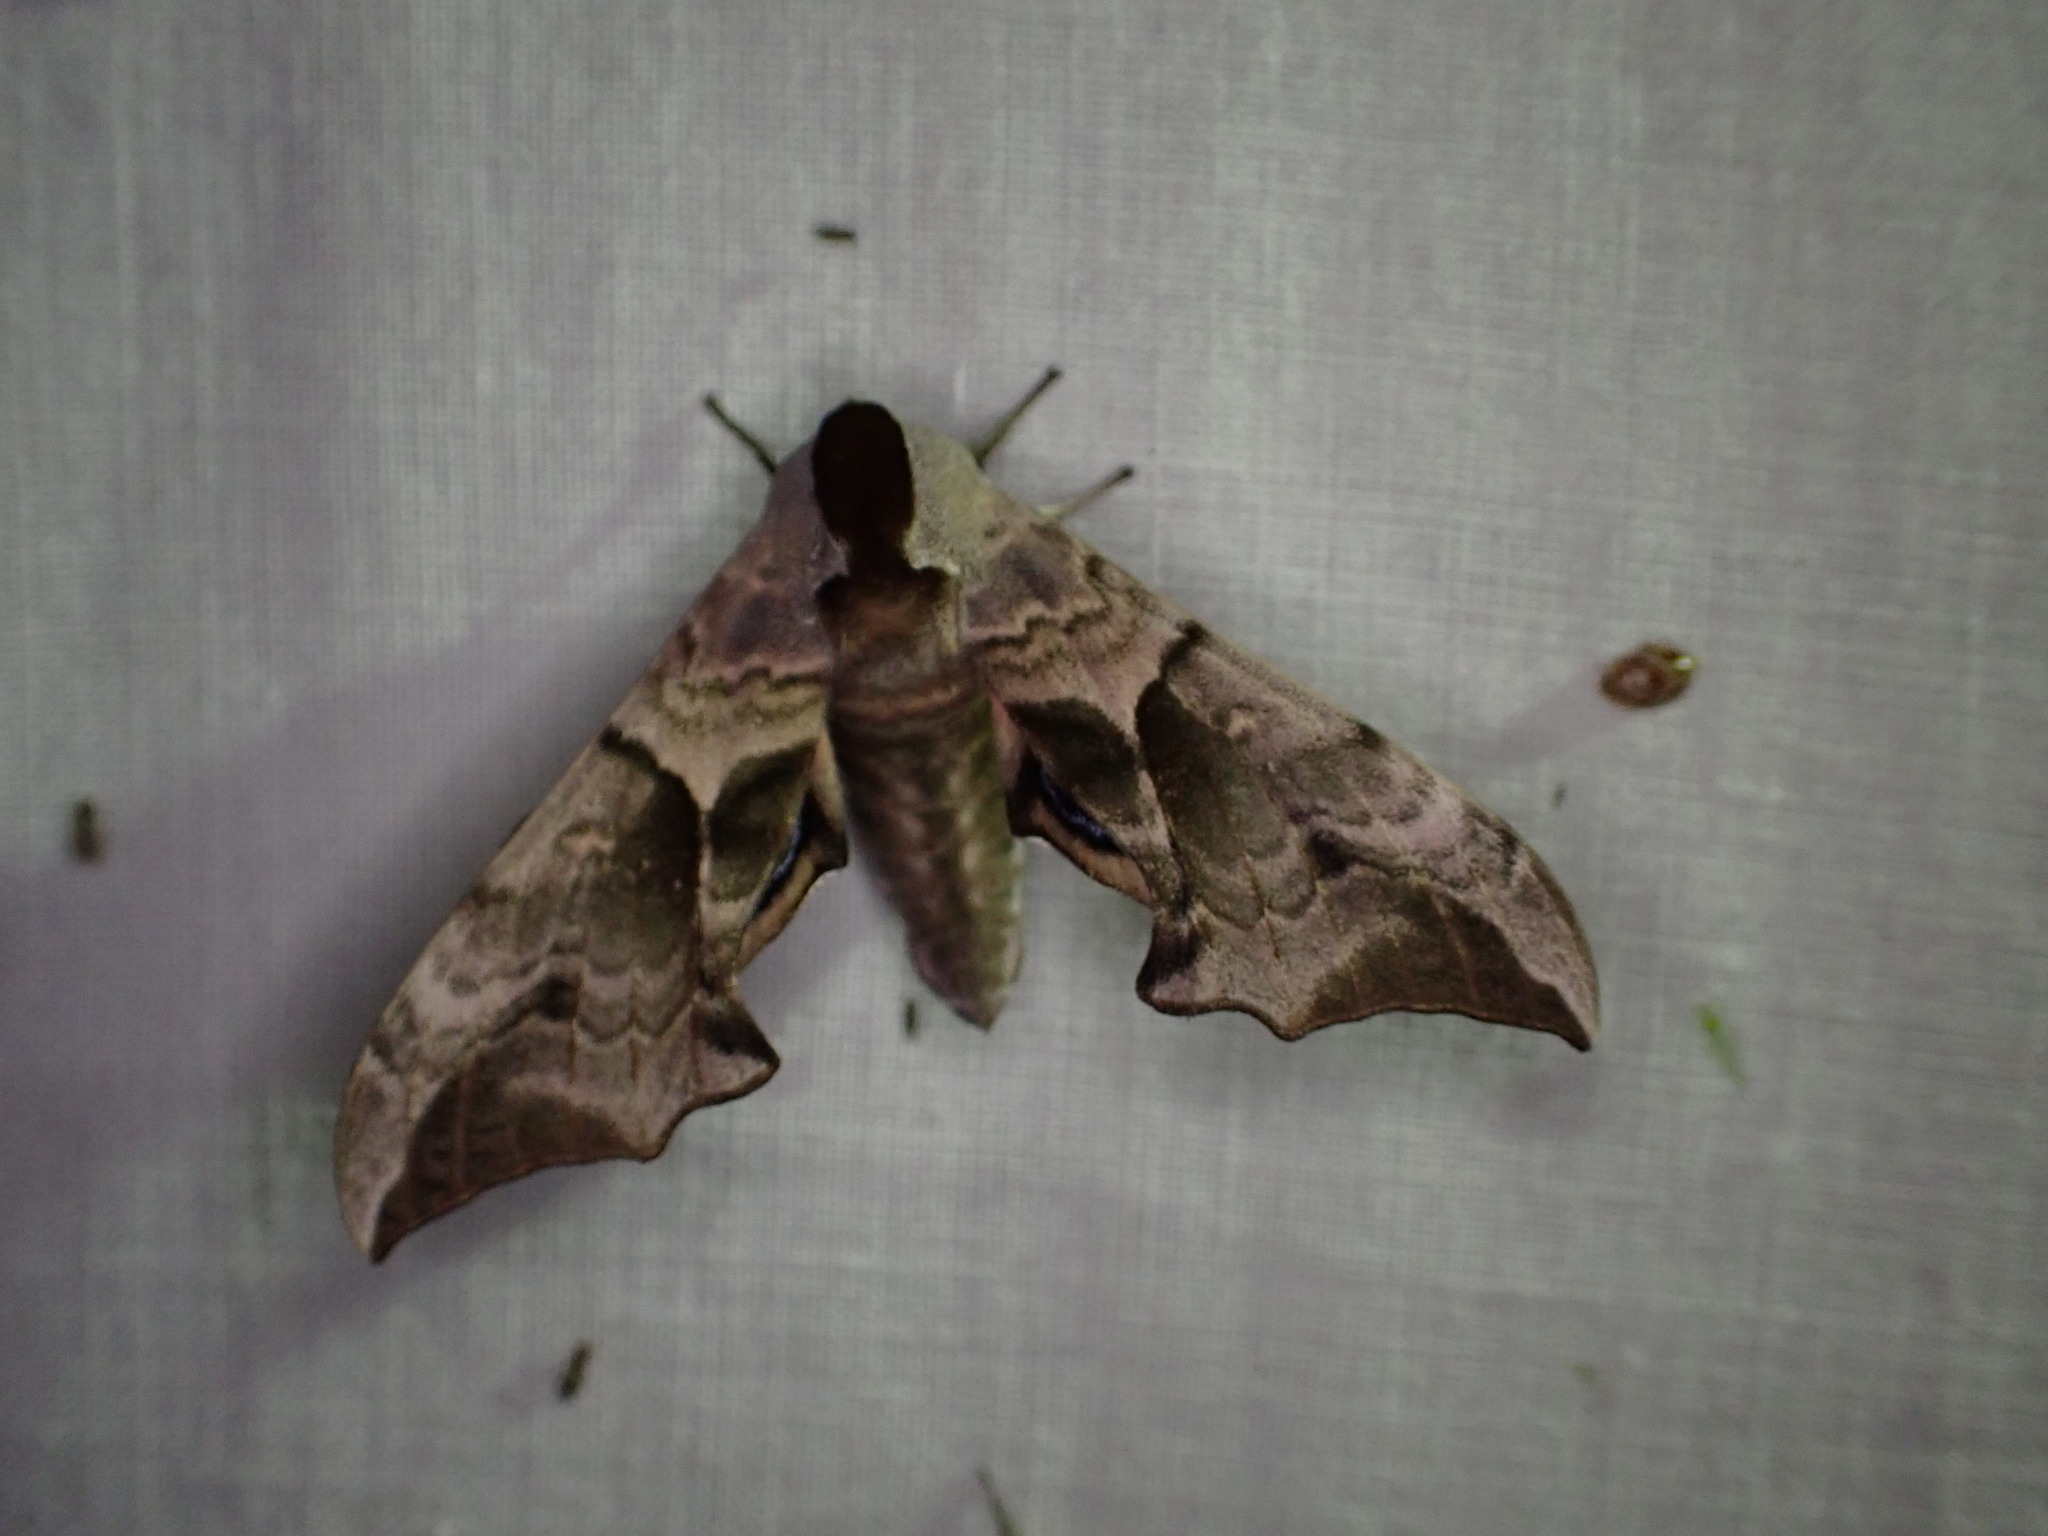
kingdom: Animalia
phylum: Arthropoda
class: Insecta
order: Lepidoptera
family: Sphingidae
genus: Smerinthus
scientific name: Smerinthus ocellata
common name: Eyed hawk-moth
